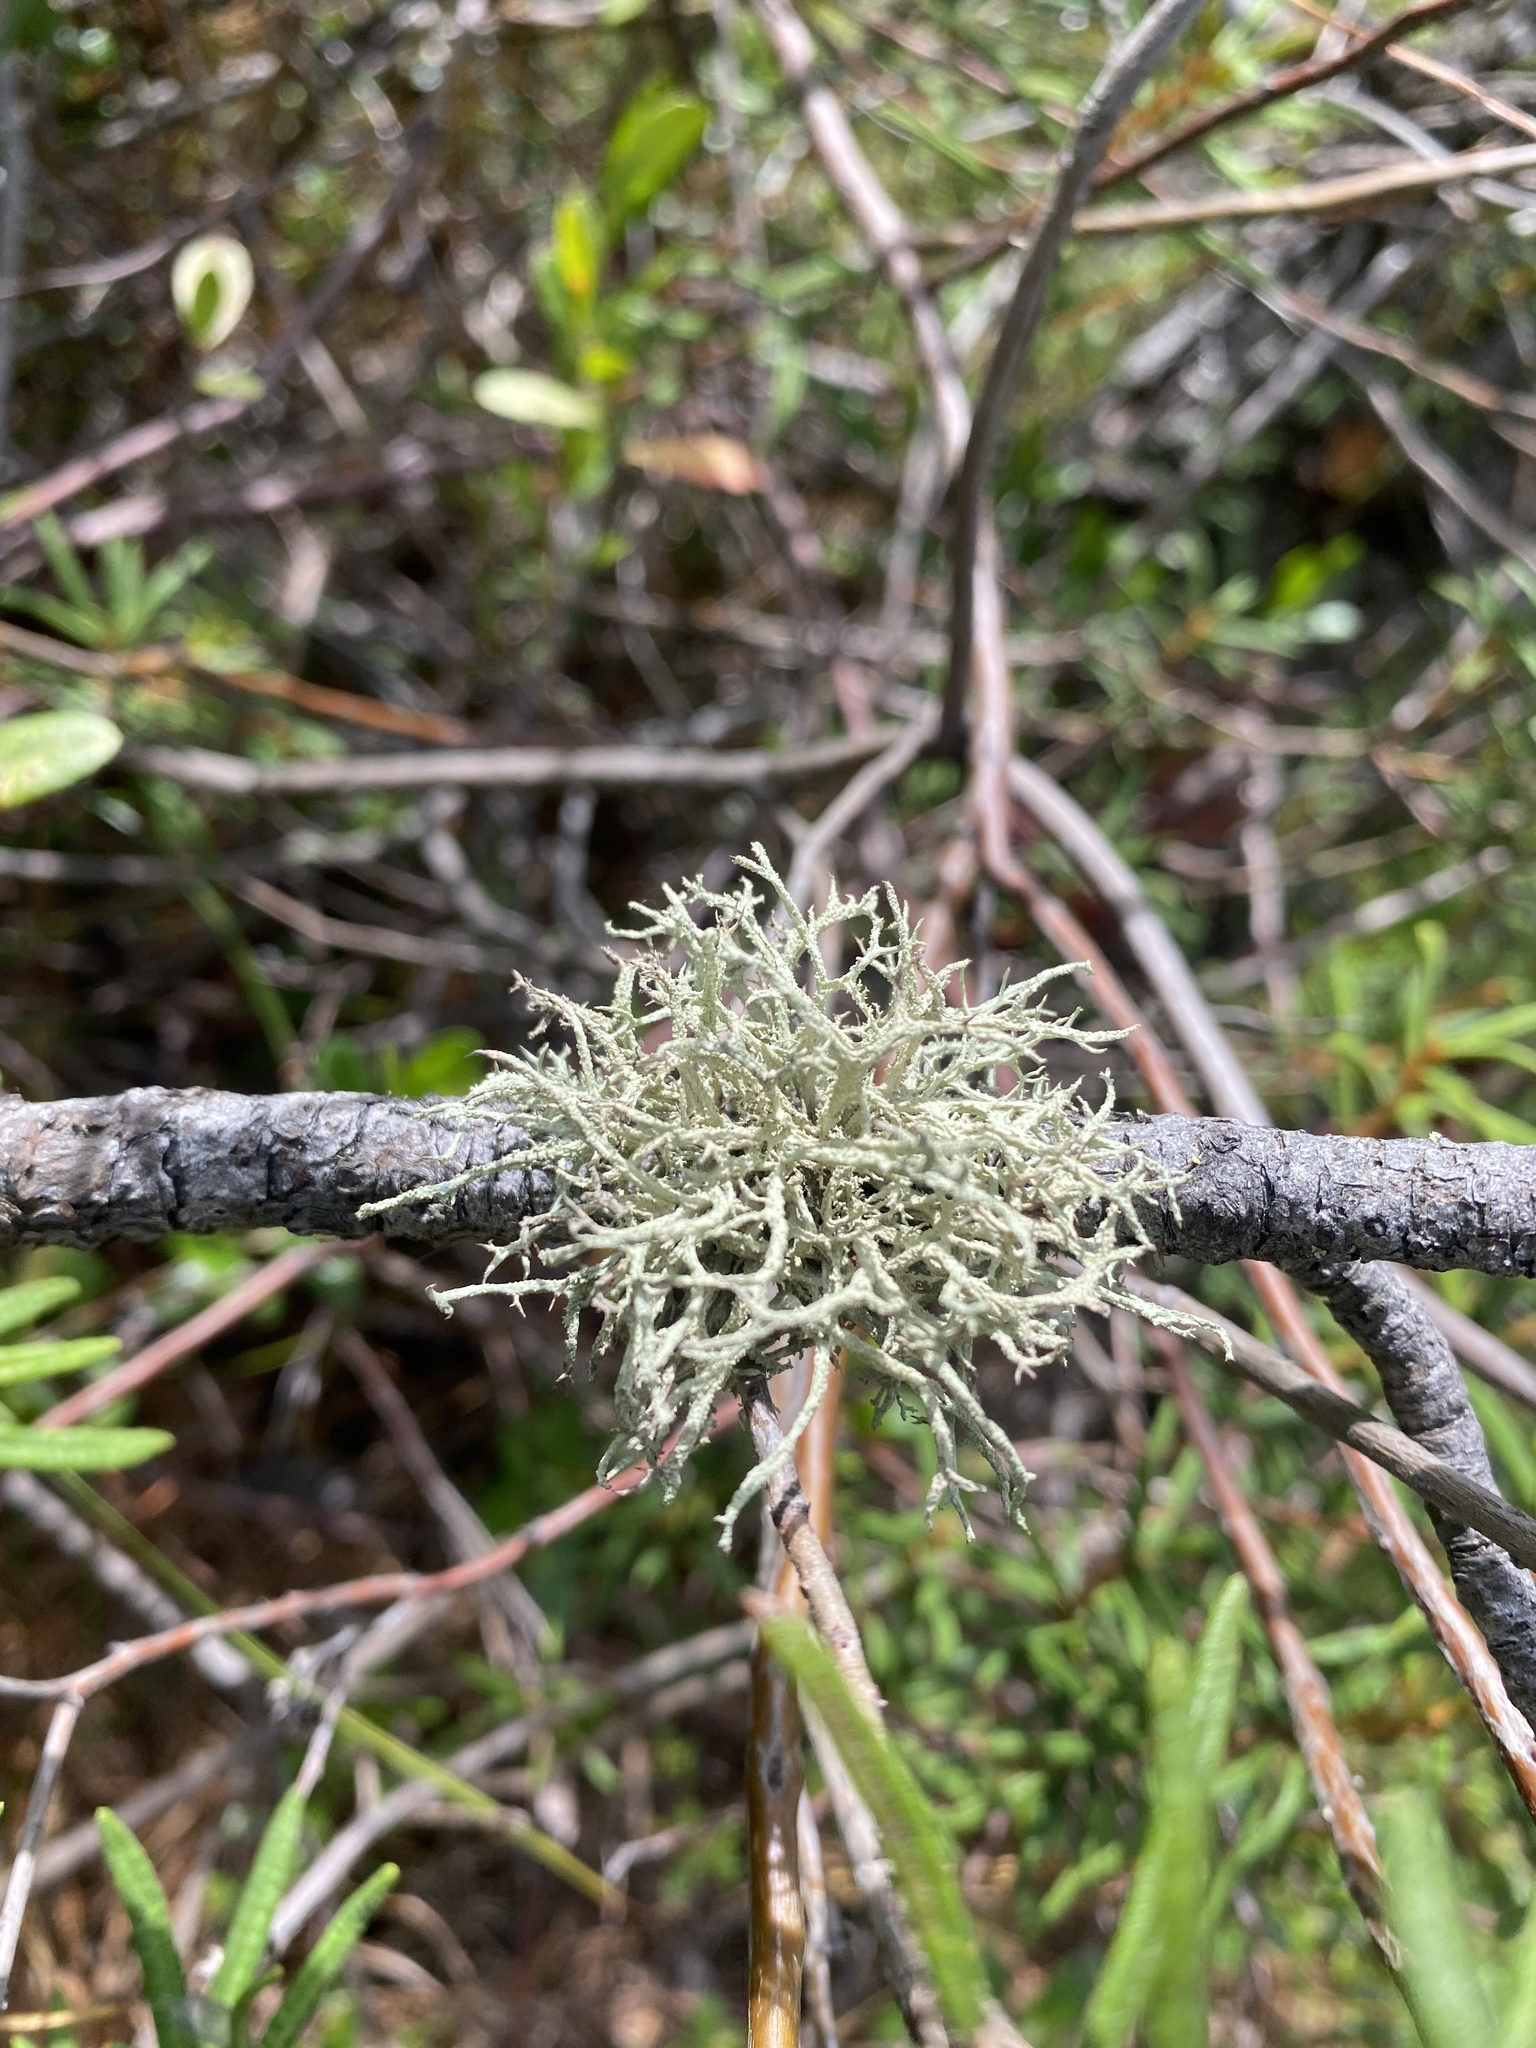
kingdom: Fungi
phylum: Ascomycota
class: Lecanoromycetes
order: Lecanorales
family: Parmeliaceae
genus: Evernia
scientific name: Evernia mesomorpha
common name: Boreal oak moss lichen
